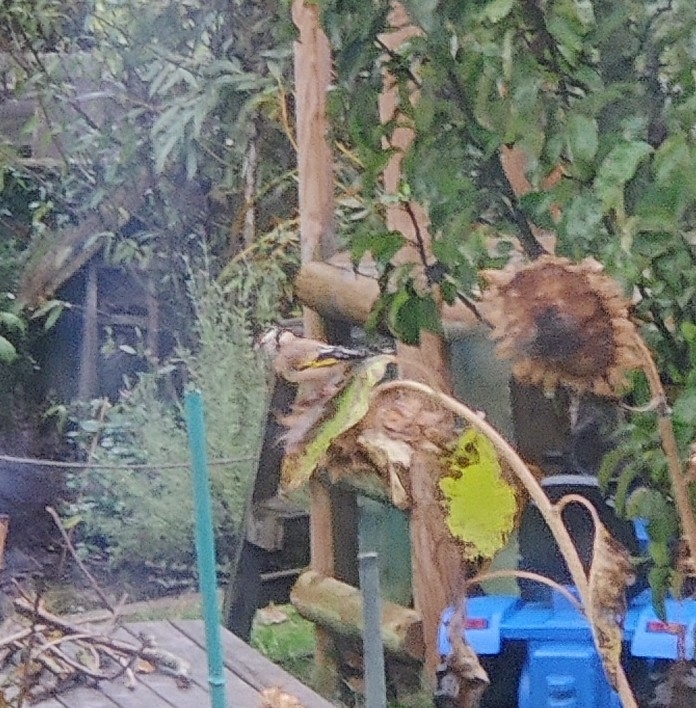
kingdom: Animalia
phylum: Chordata
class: Aves
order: Passeriformes
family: Fringillidae
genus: Carduelis
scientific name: Carduelis carduelis
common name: European goldfinch
